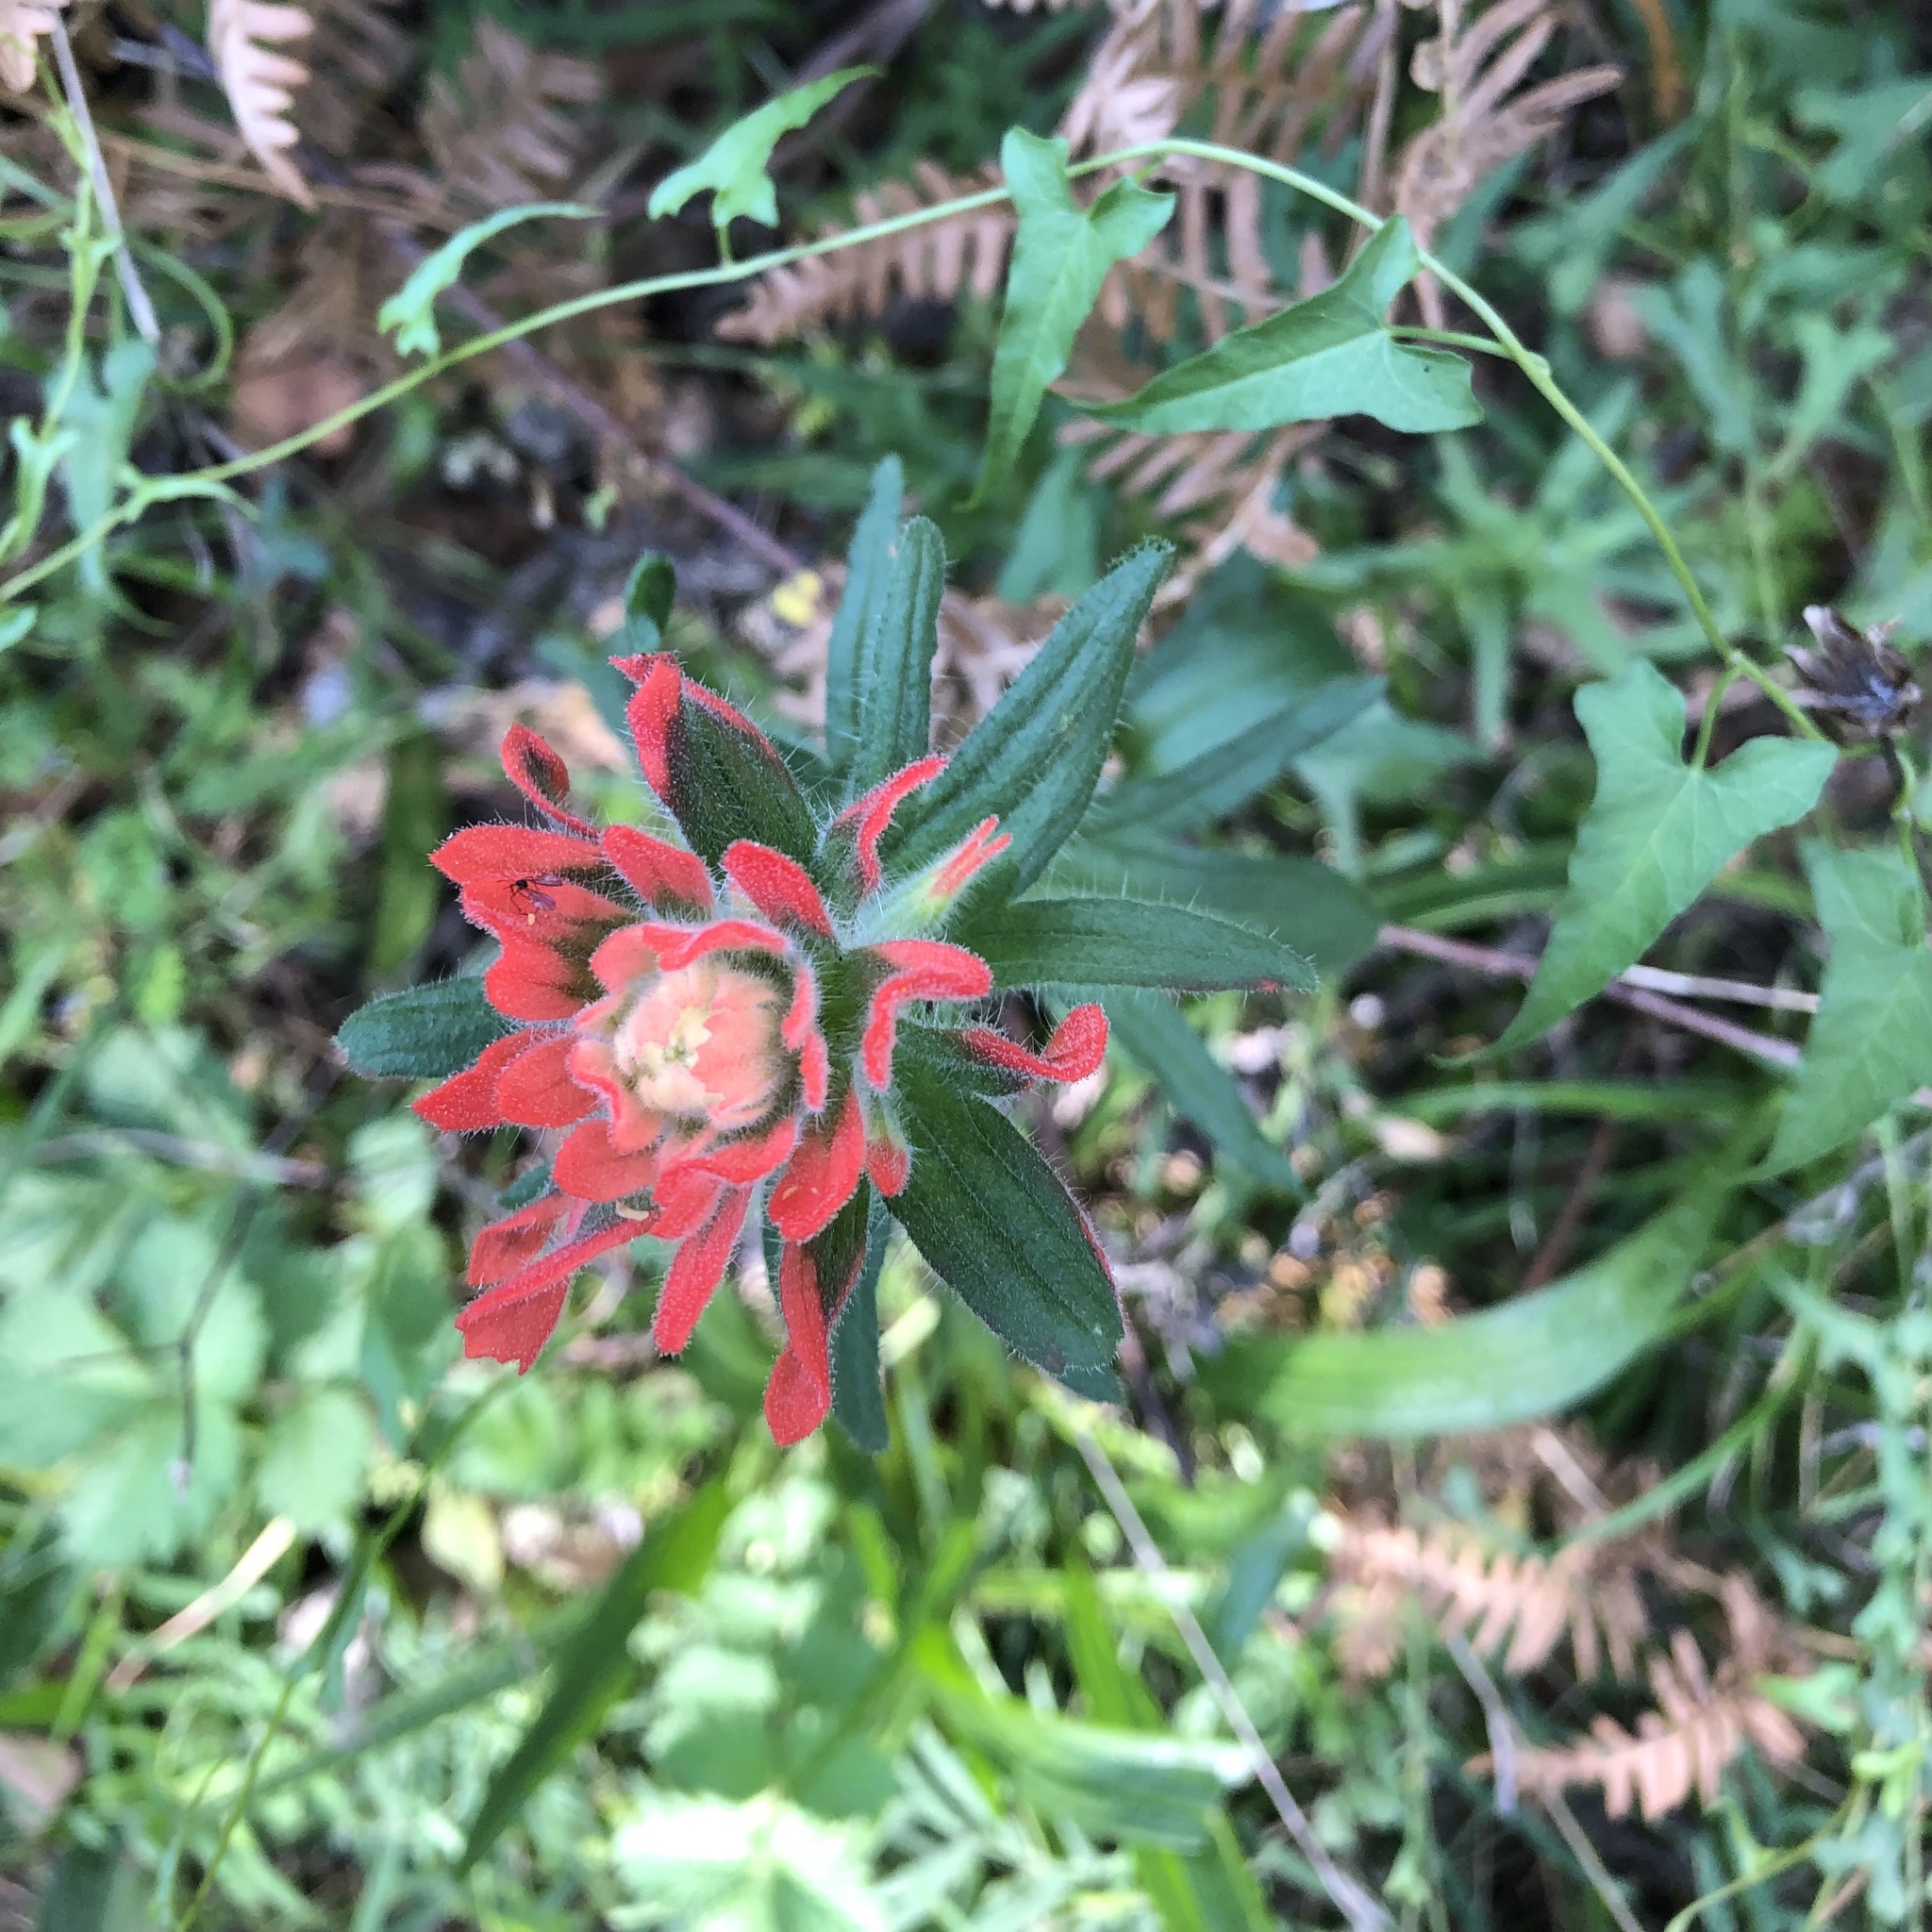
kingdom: Plantae
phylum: Tracheophyta
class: Magnoliopsida
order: Lamiales
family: Orobanchaceae
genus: Castilleja
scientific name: Castilleja affinis
